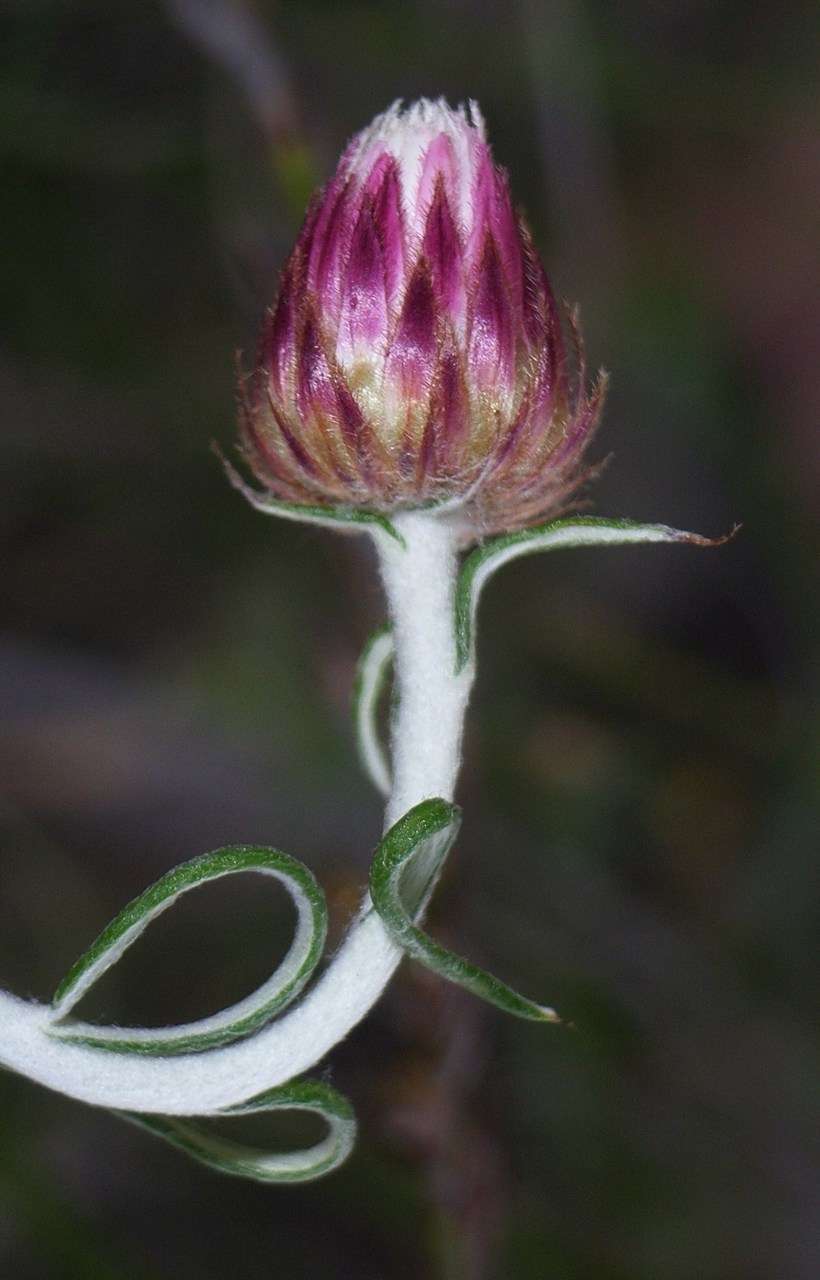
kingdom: Plantae
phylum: Tracheophyta
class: Magnoliopsida
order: Asterales
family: Asteraceae
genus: Chrysocephalum
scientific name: Chrysocephalum baxteri
